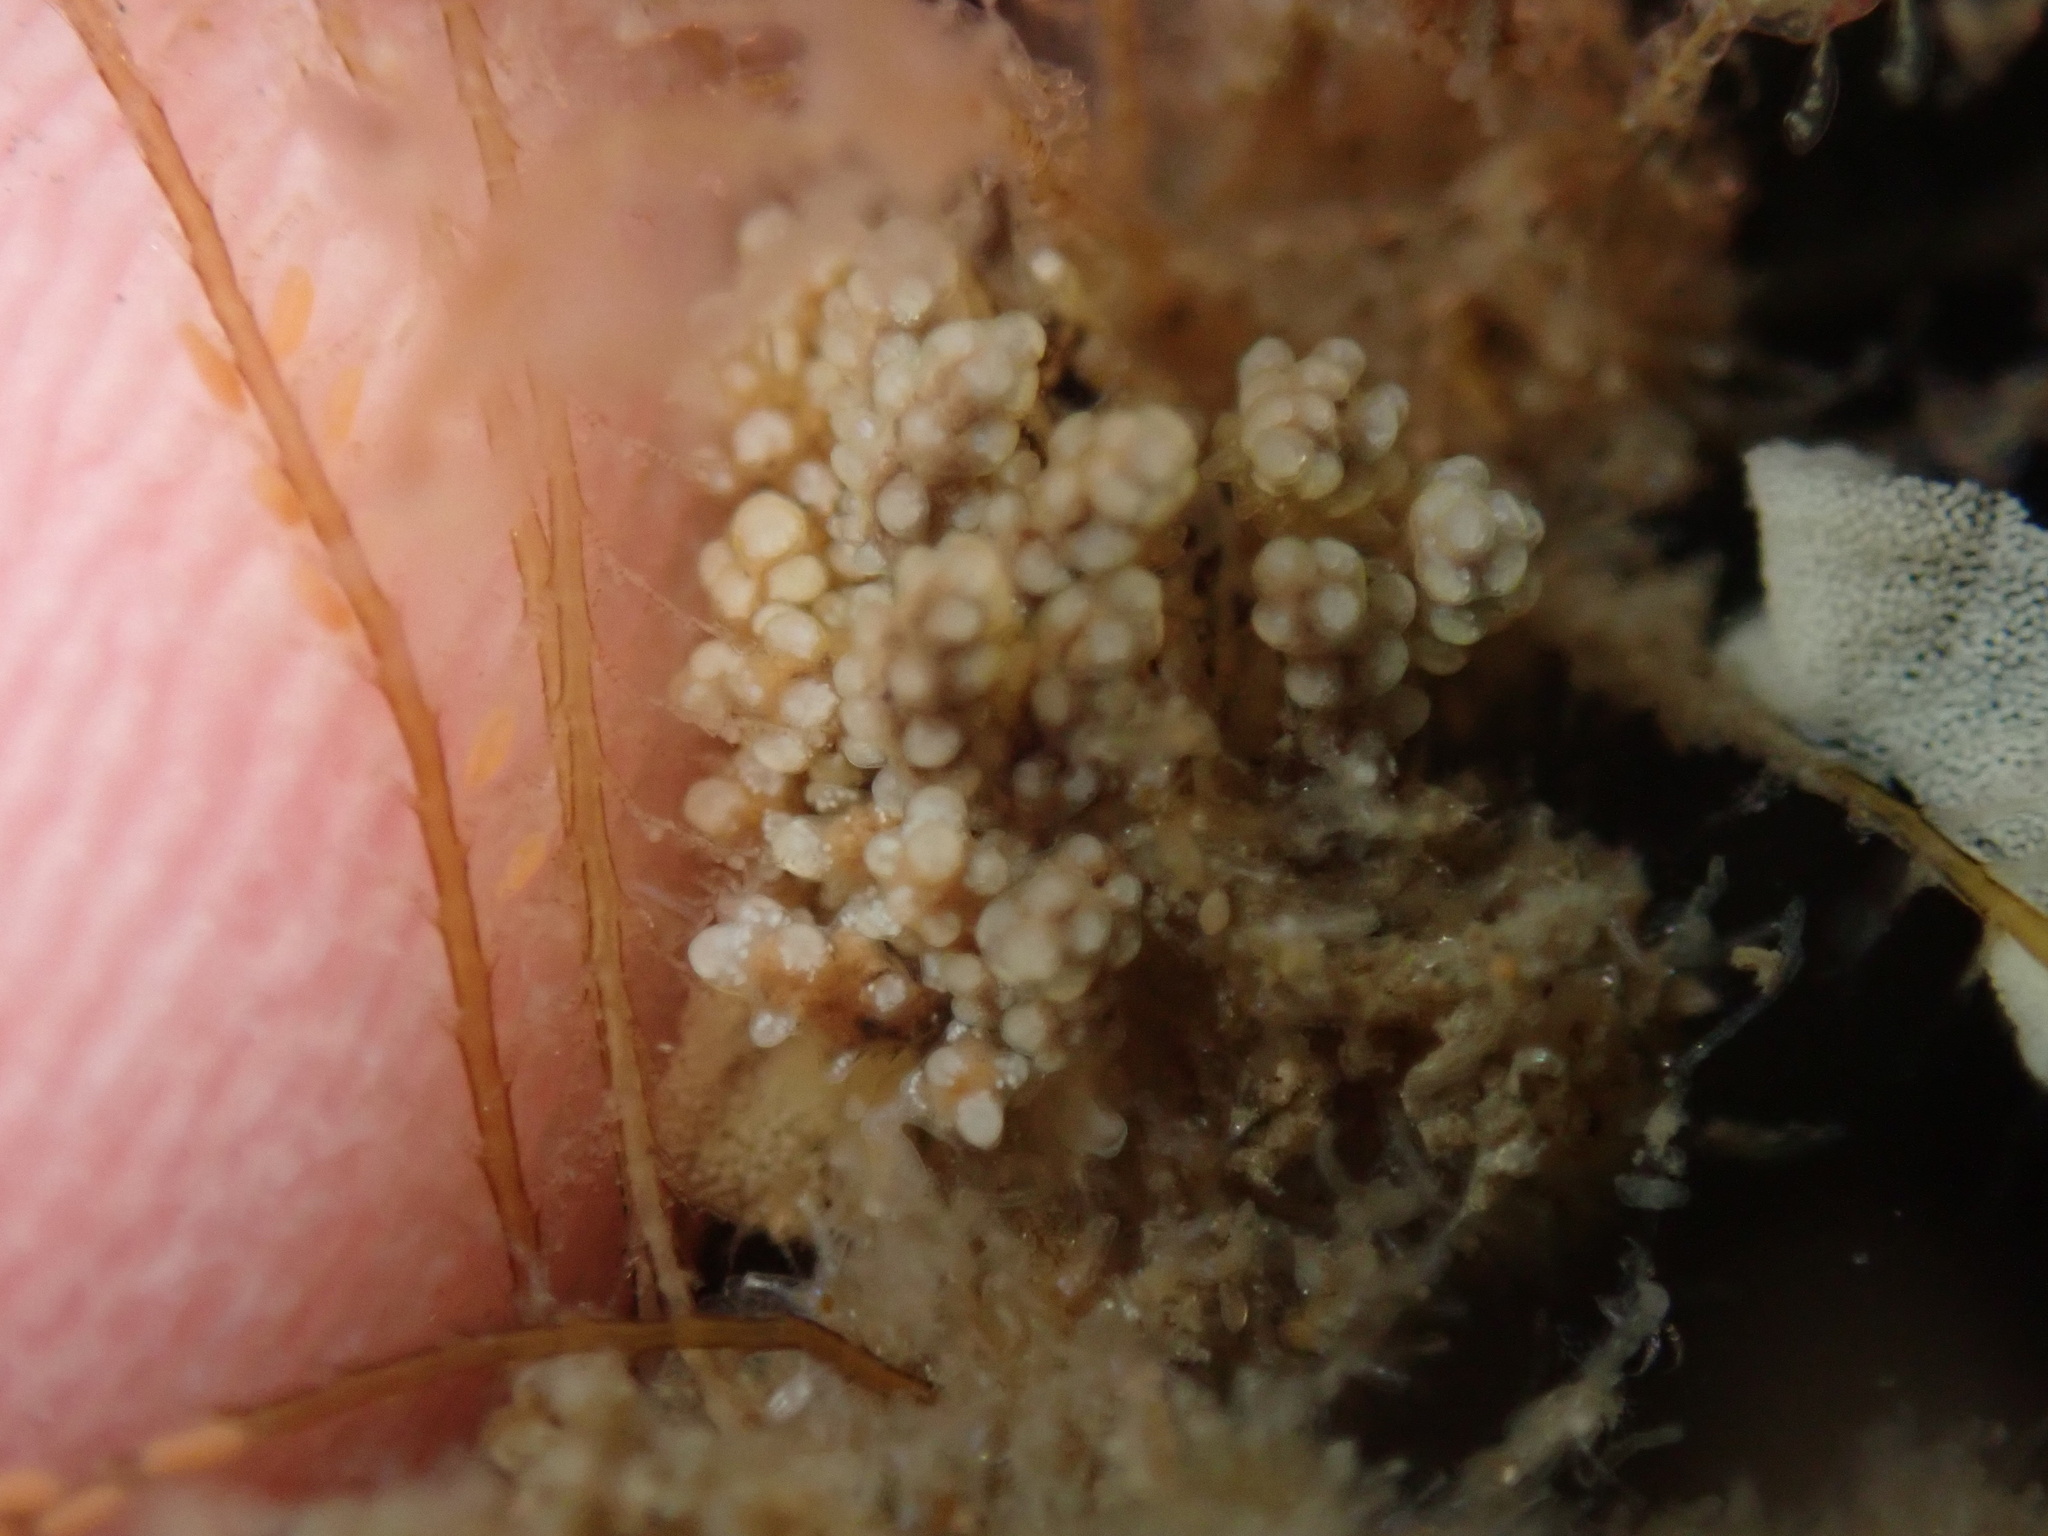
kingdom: Animalia
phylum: Mollusca
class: Gastropoda
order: Nudibranchia
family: Dotidae
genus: Doto
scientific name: Doto kya
